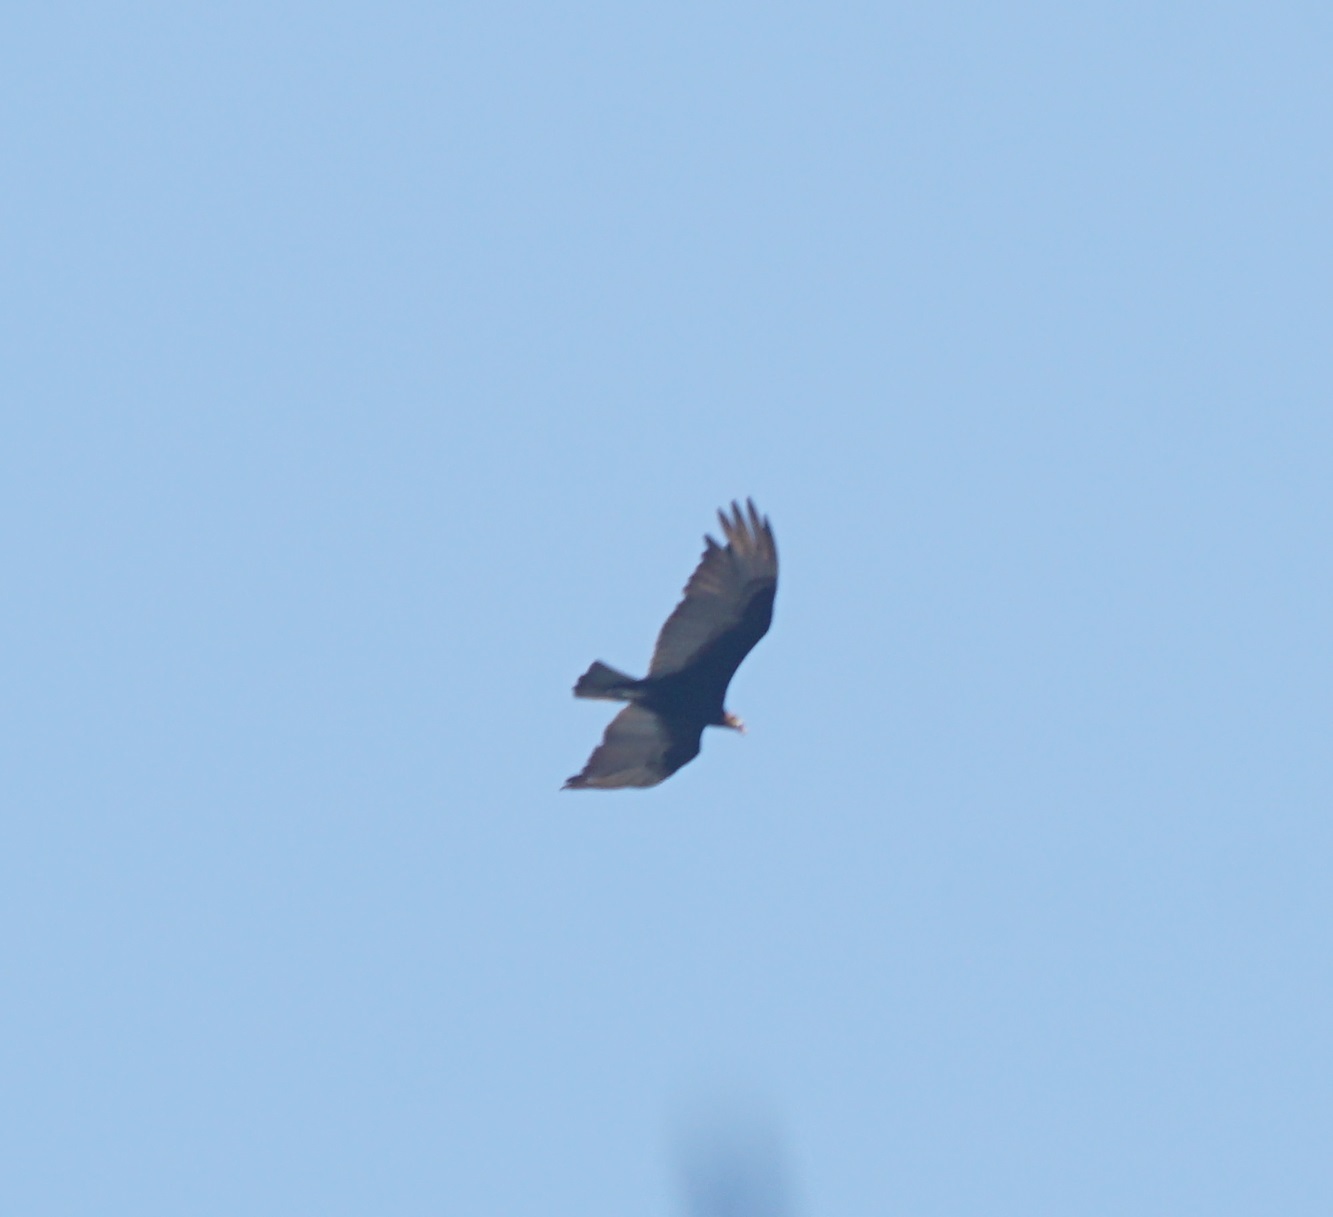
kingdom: Animalia
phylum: Chordata
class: Aves
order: Accipitriformes
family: Cathartidae
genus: Cathartes
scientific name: Cathartes aura
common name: Turkey vulture
